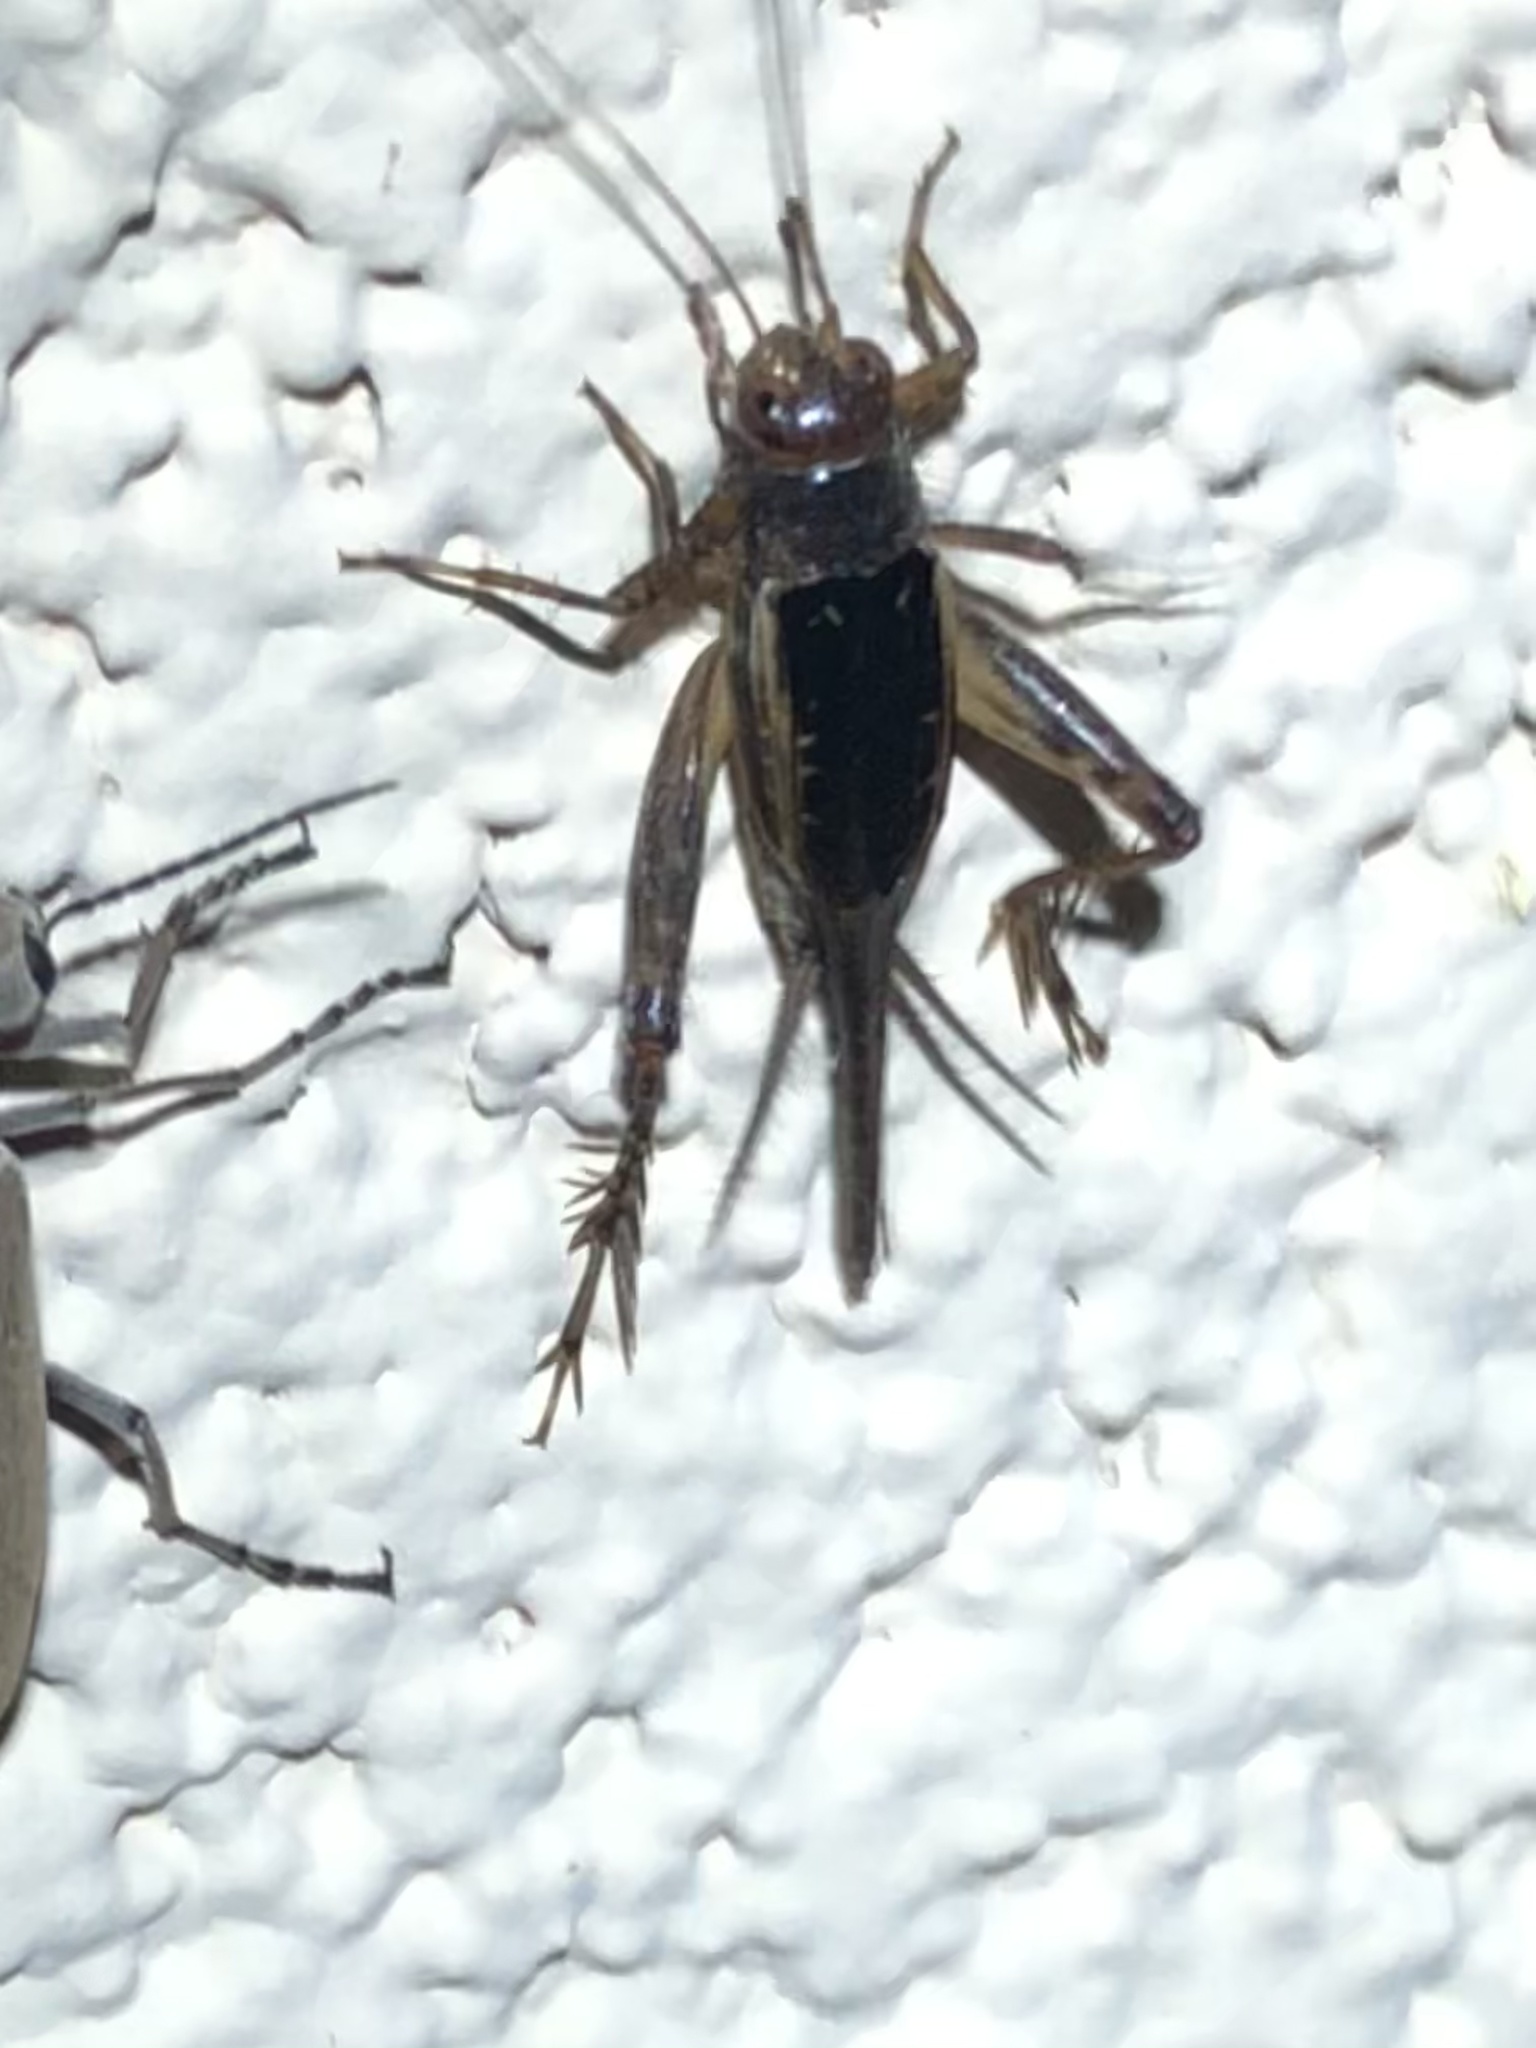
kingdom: Animalia
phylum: Arthropoda
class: Insecta
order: Orthoptera
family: Trigonidiidae
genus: Neonemobius
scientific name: Neonemobius mormonius
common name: Mormon ground cricket
